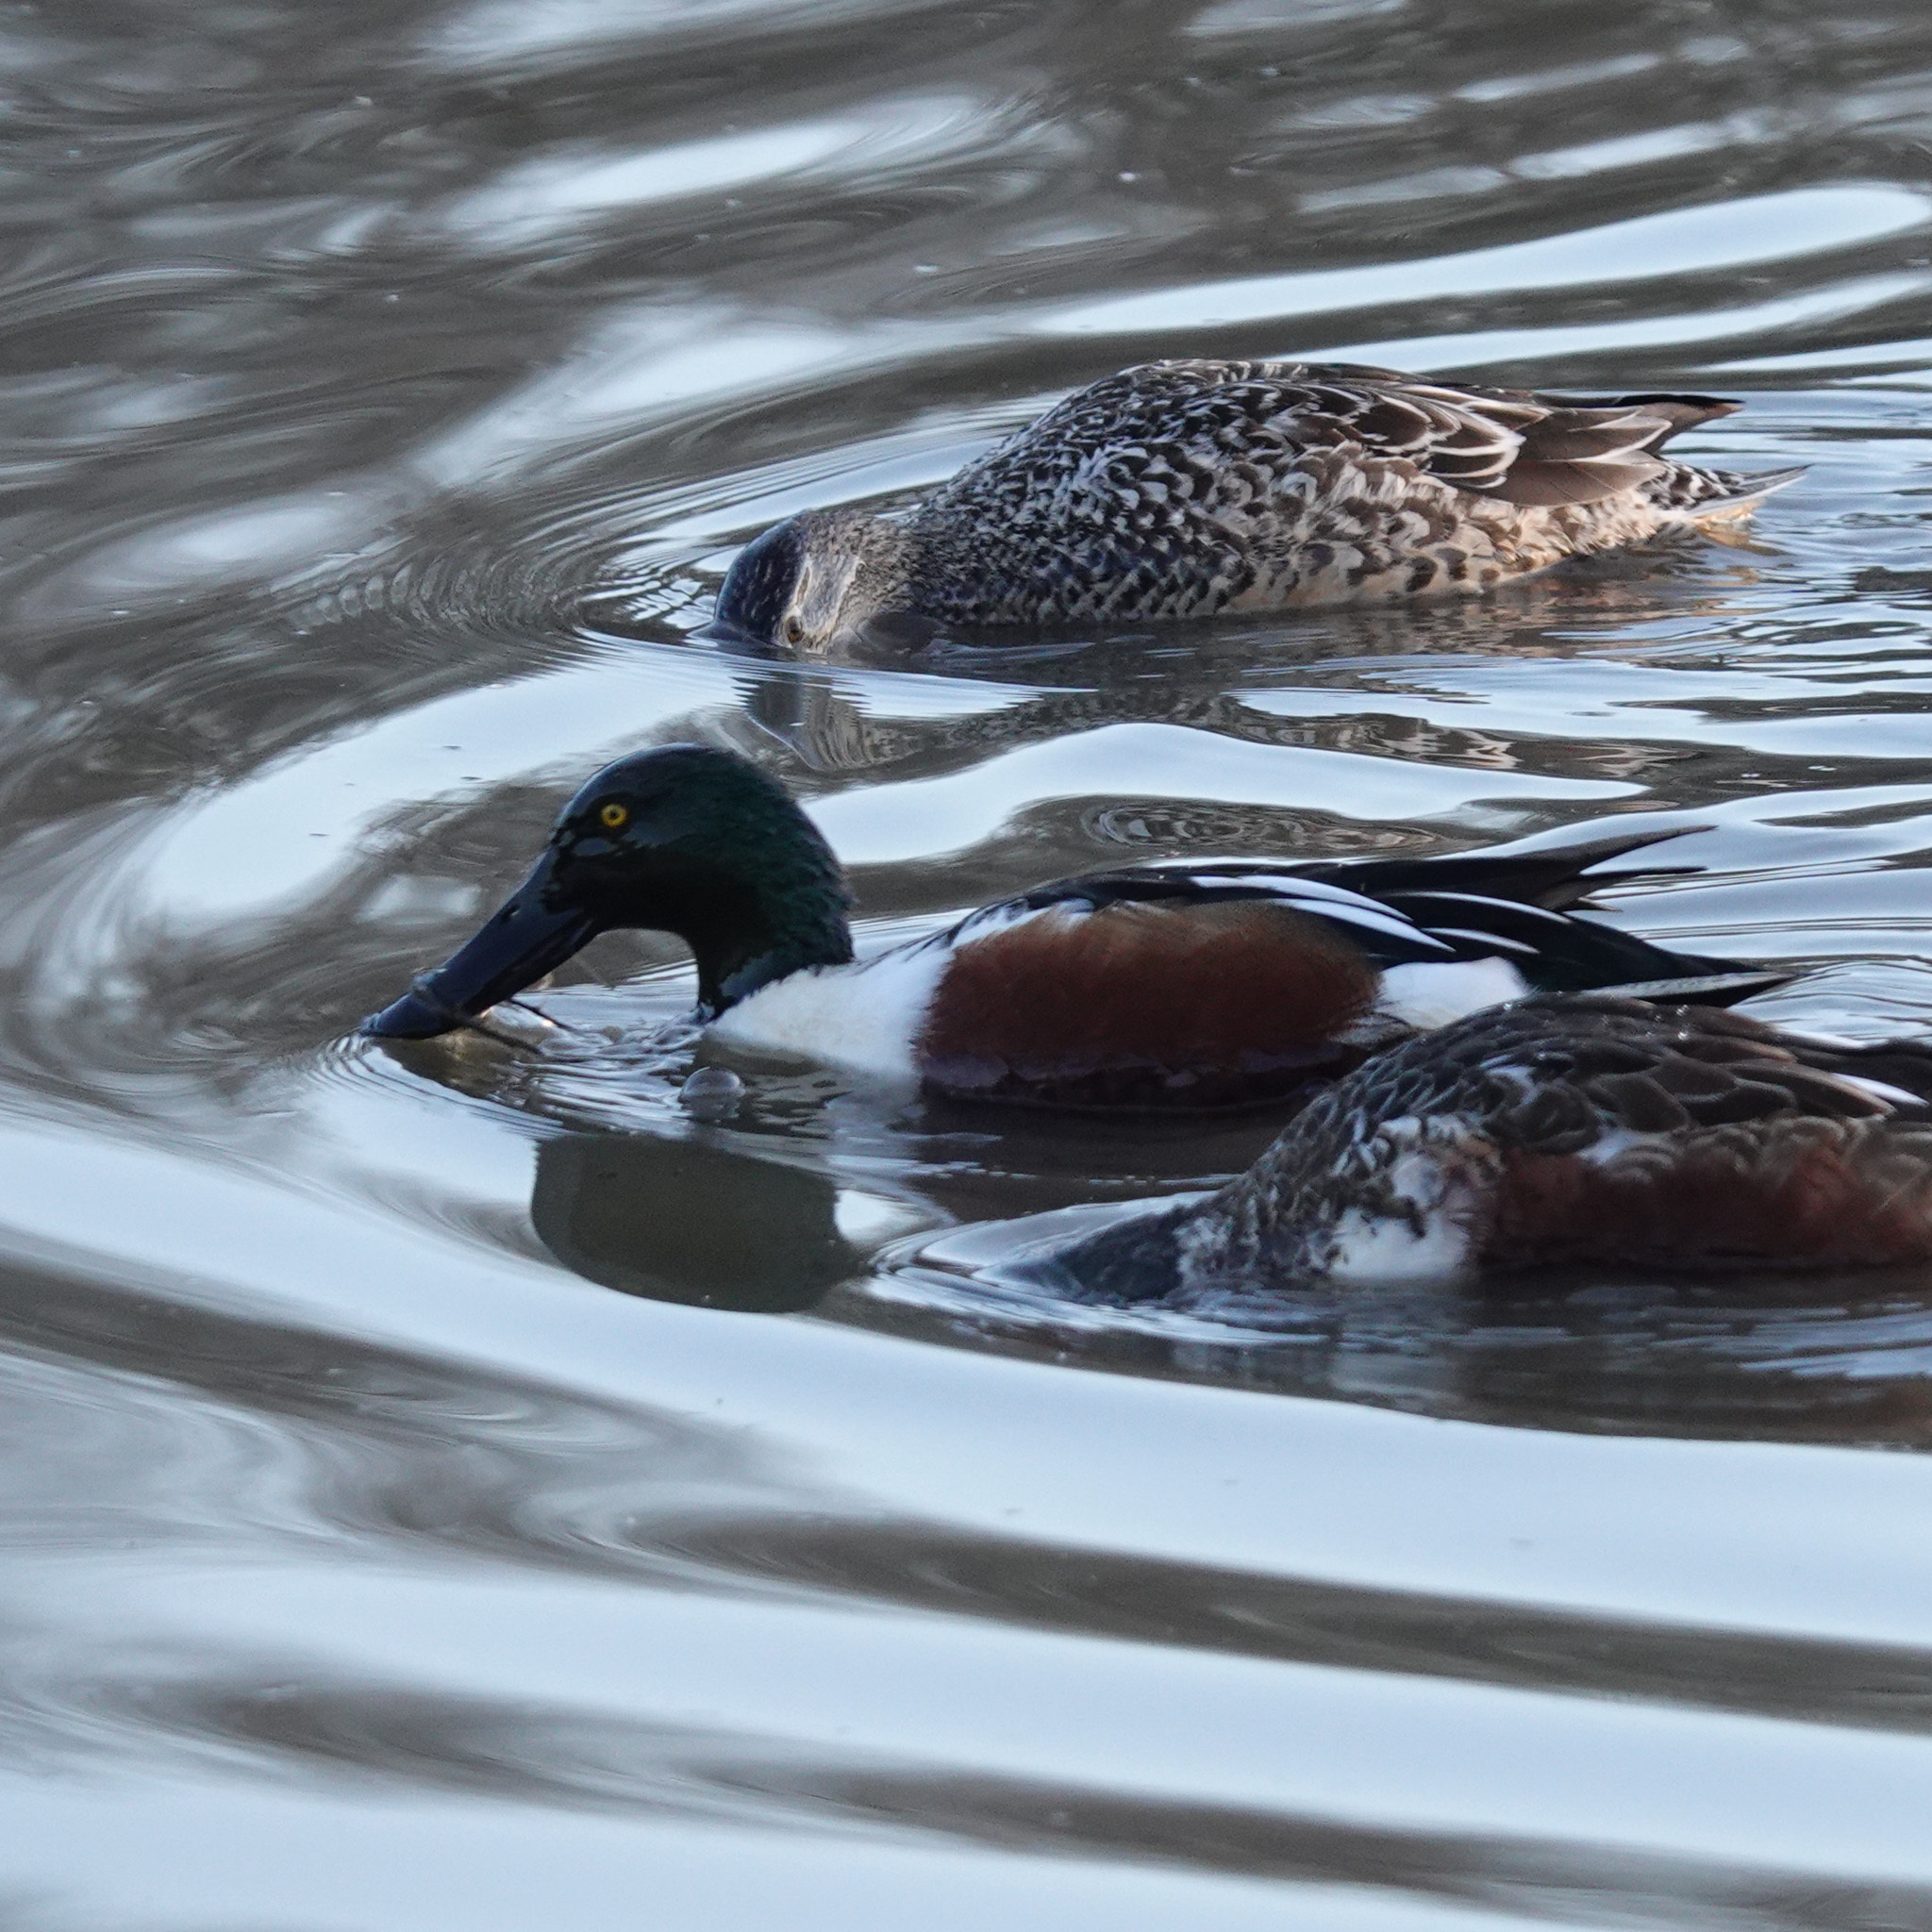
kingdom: Animalia
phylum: Chordata
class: Aves
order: Anseriformes
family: Anatidae
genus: Spatula
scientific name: Spatula clypeata
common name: Northern shoveler
